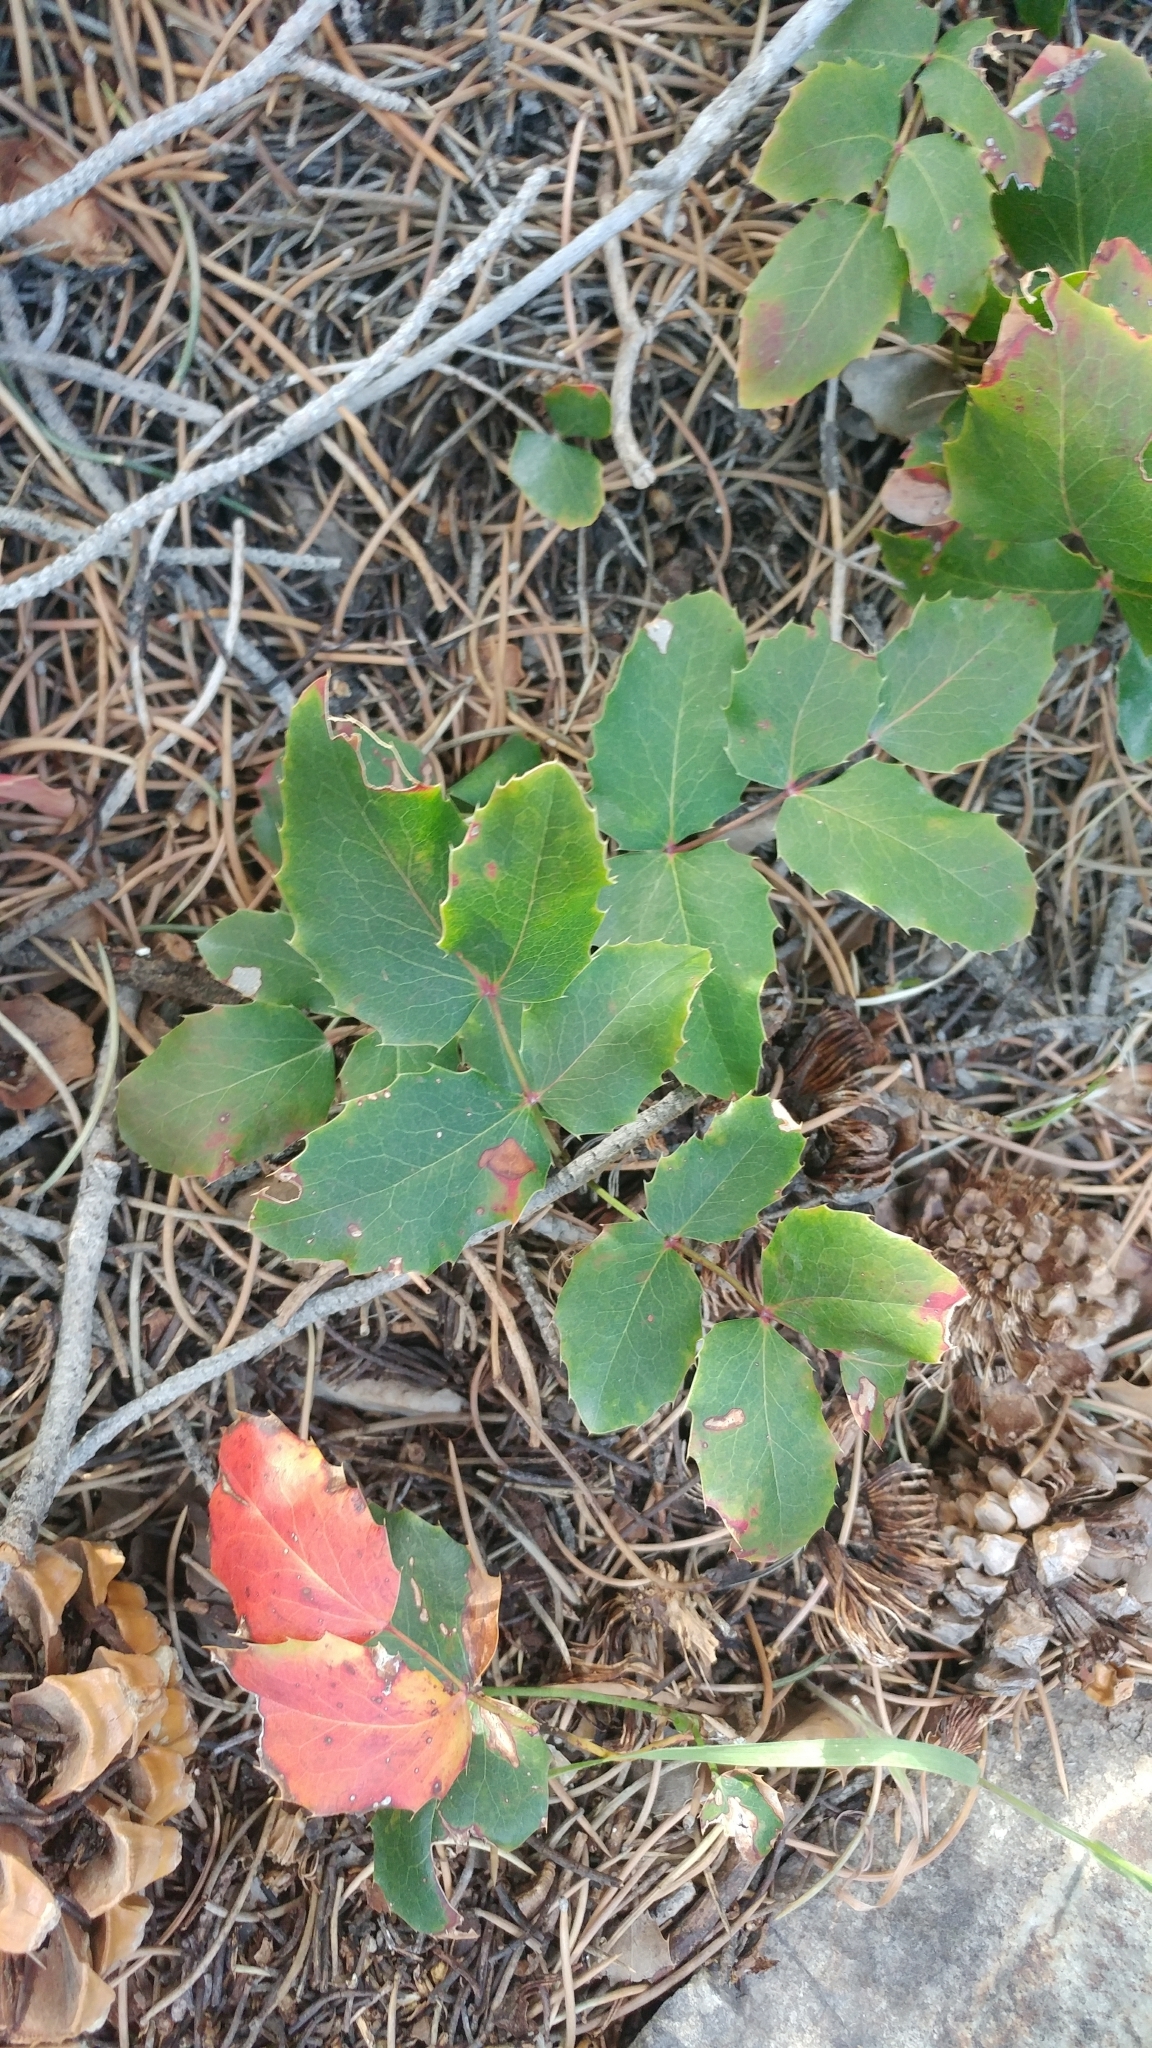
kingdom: Plantae
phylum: Tracheophyta
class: Magnoliopsida
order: Ranunculales
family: Berberidaceae
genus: Mahonia
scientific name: Mahonia repens
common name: Creeping oregon-grape
